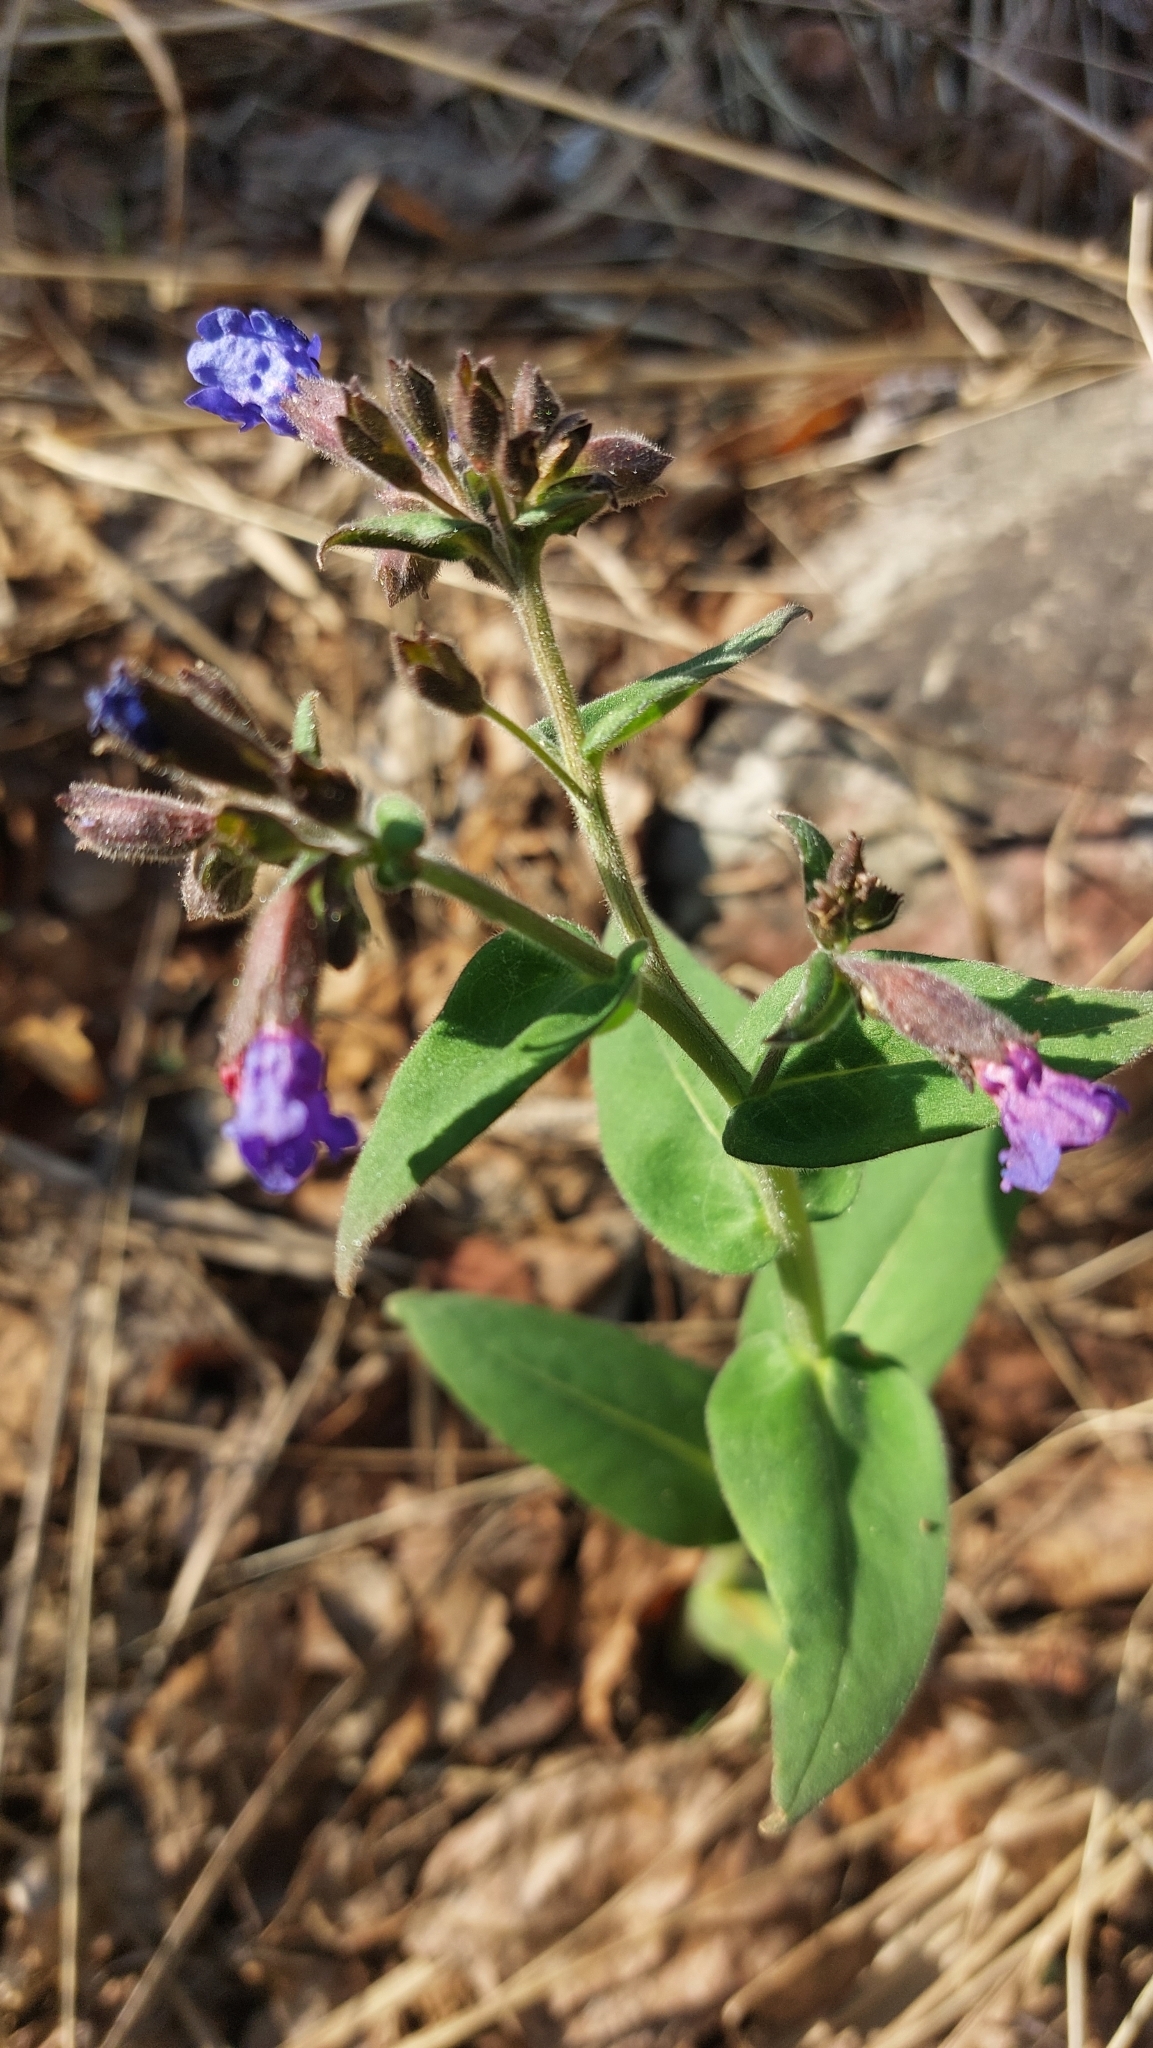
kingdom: Plantae
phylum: Tracheophyta
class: Magnoliopsida
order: Boraginales
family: Boraginaceae
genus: Pulmonaria
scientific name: Pulmonaria mollis
